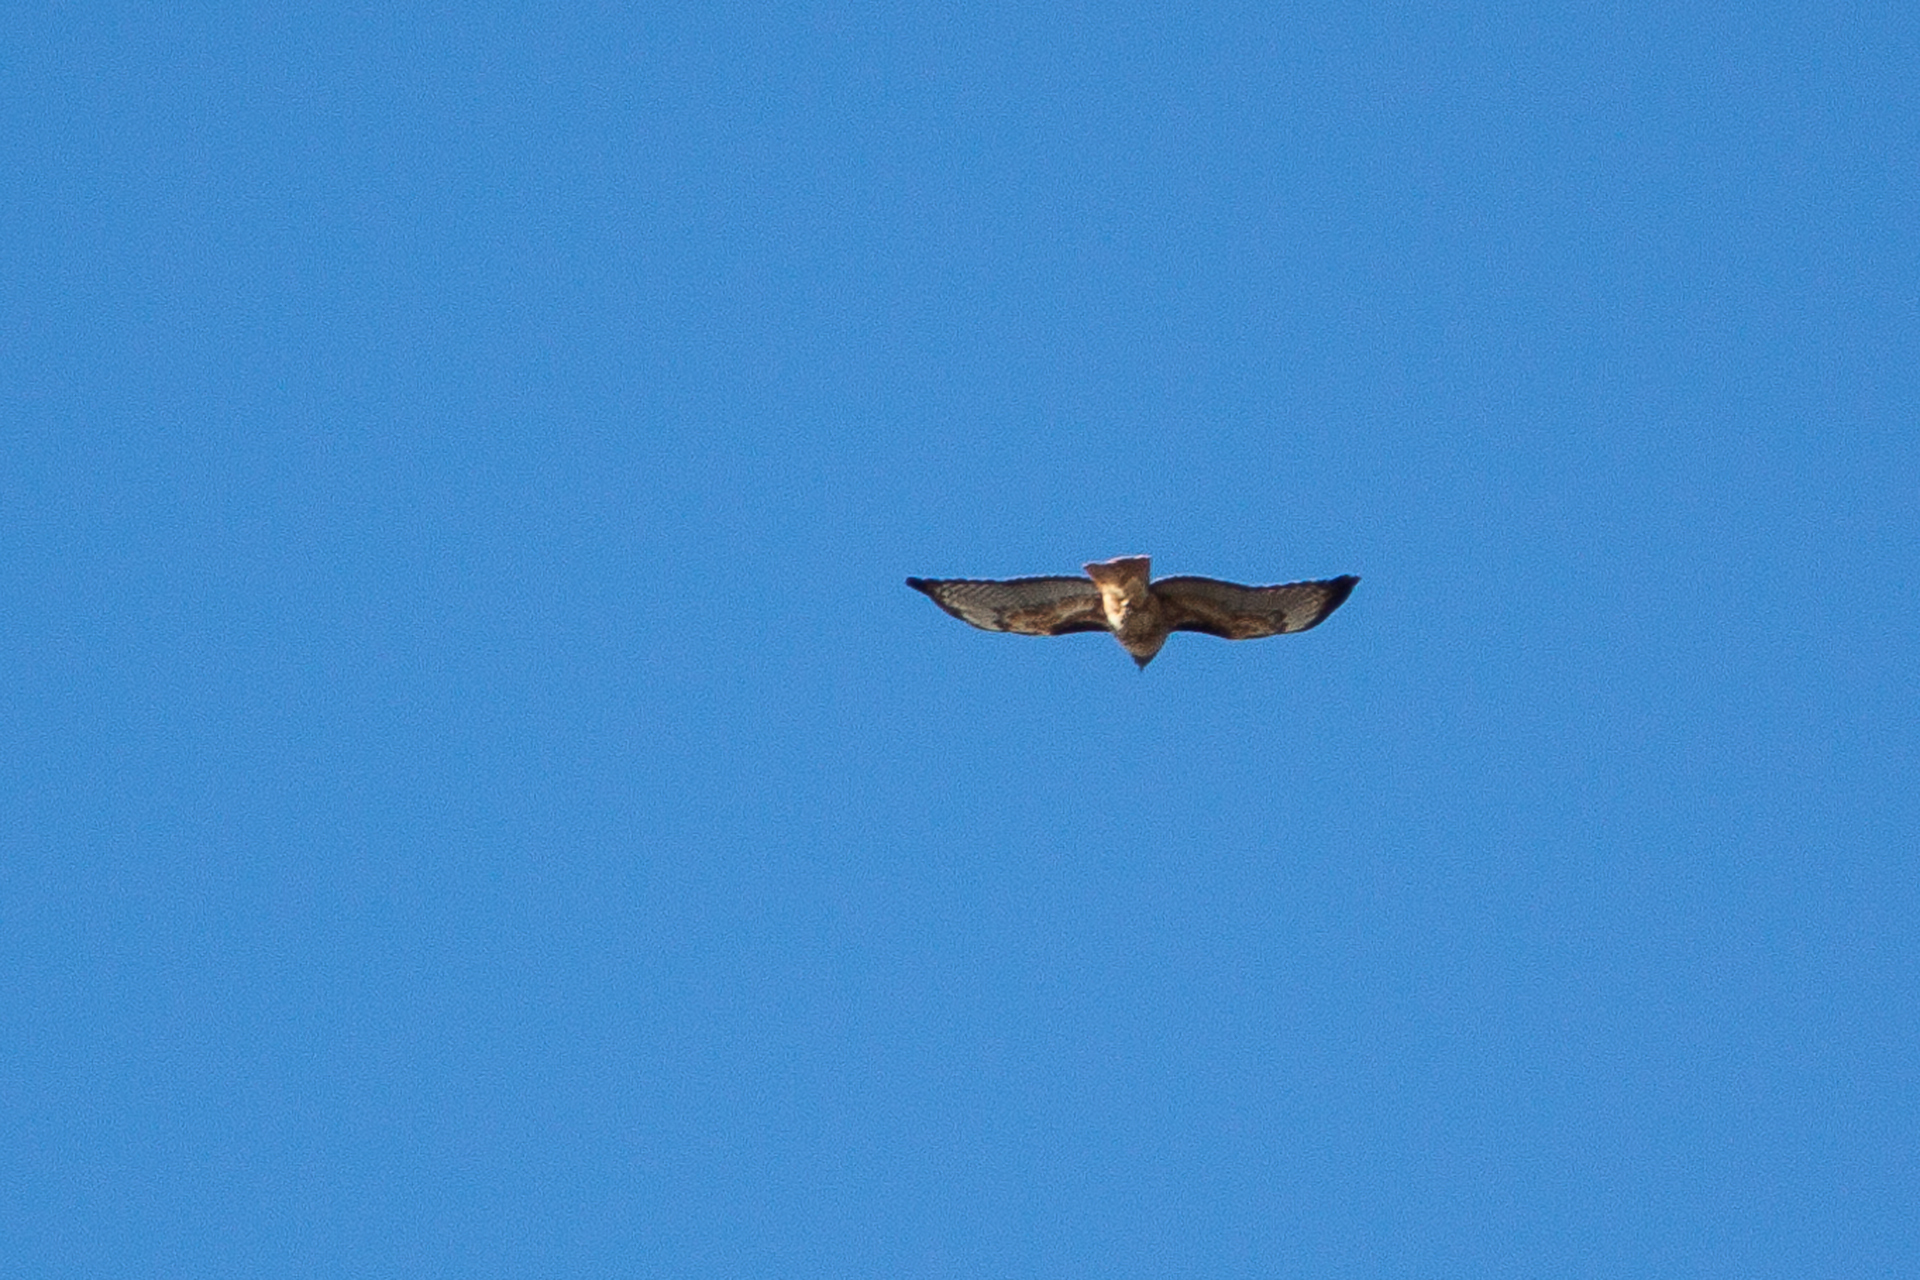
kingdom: Animalia
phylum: Chordata
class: Aves
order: Accipitriformes
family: Accipitridae
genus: Buteo
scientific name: Buteo jamaicensis
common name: Red-tailed hawk
